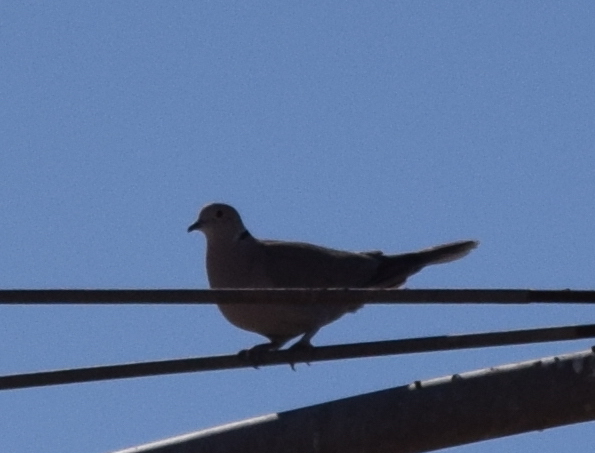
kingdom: Animalia
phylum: Chordata
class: Aves
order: Columbiformes
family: Columbidae
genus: Streptopelia
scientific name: Streptopelia decaocto
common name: Eurasian collared dove
